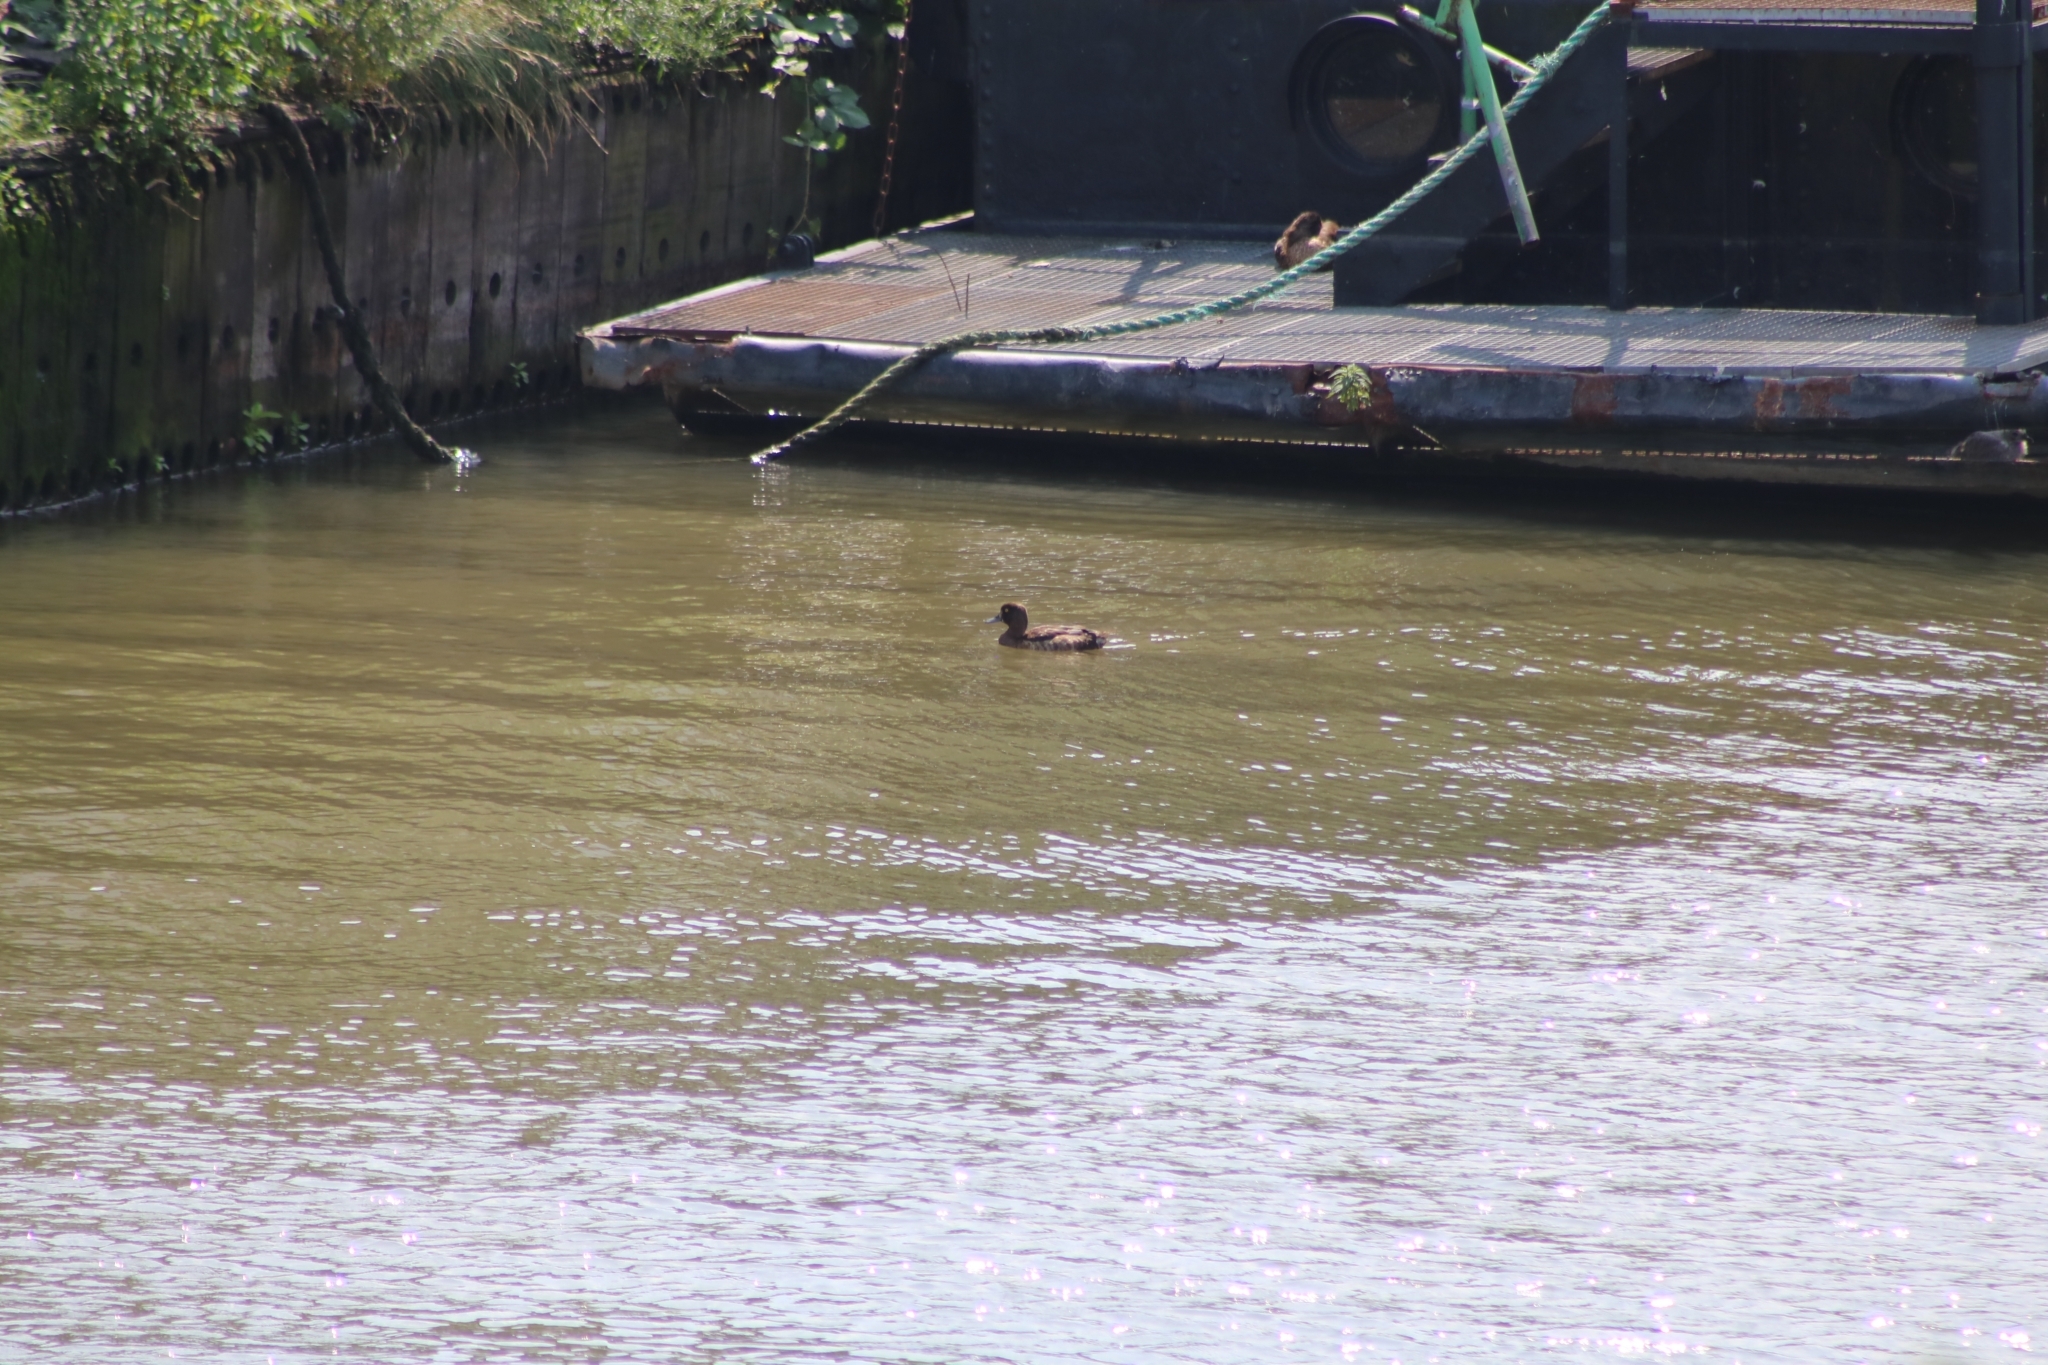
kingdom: Animalia
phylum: Chordata
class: Aves
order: Anseriformes
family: Anatidae
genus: Aythya
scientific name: Aythya fuligula
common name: Tufted duck
